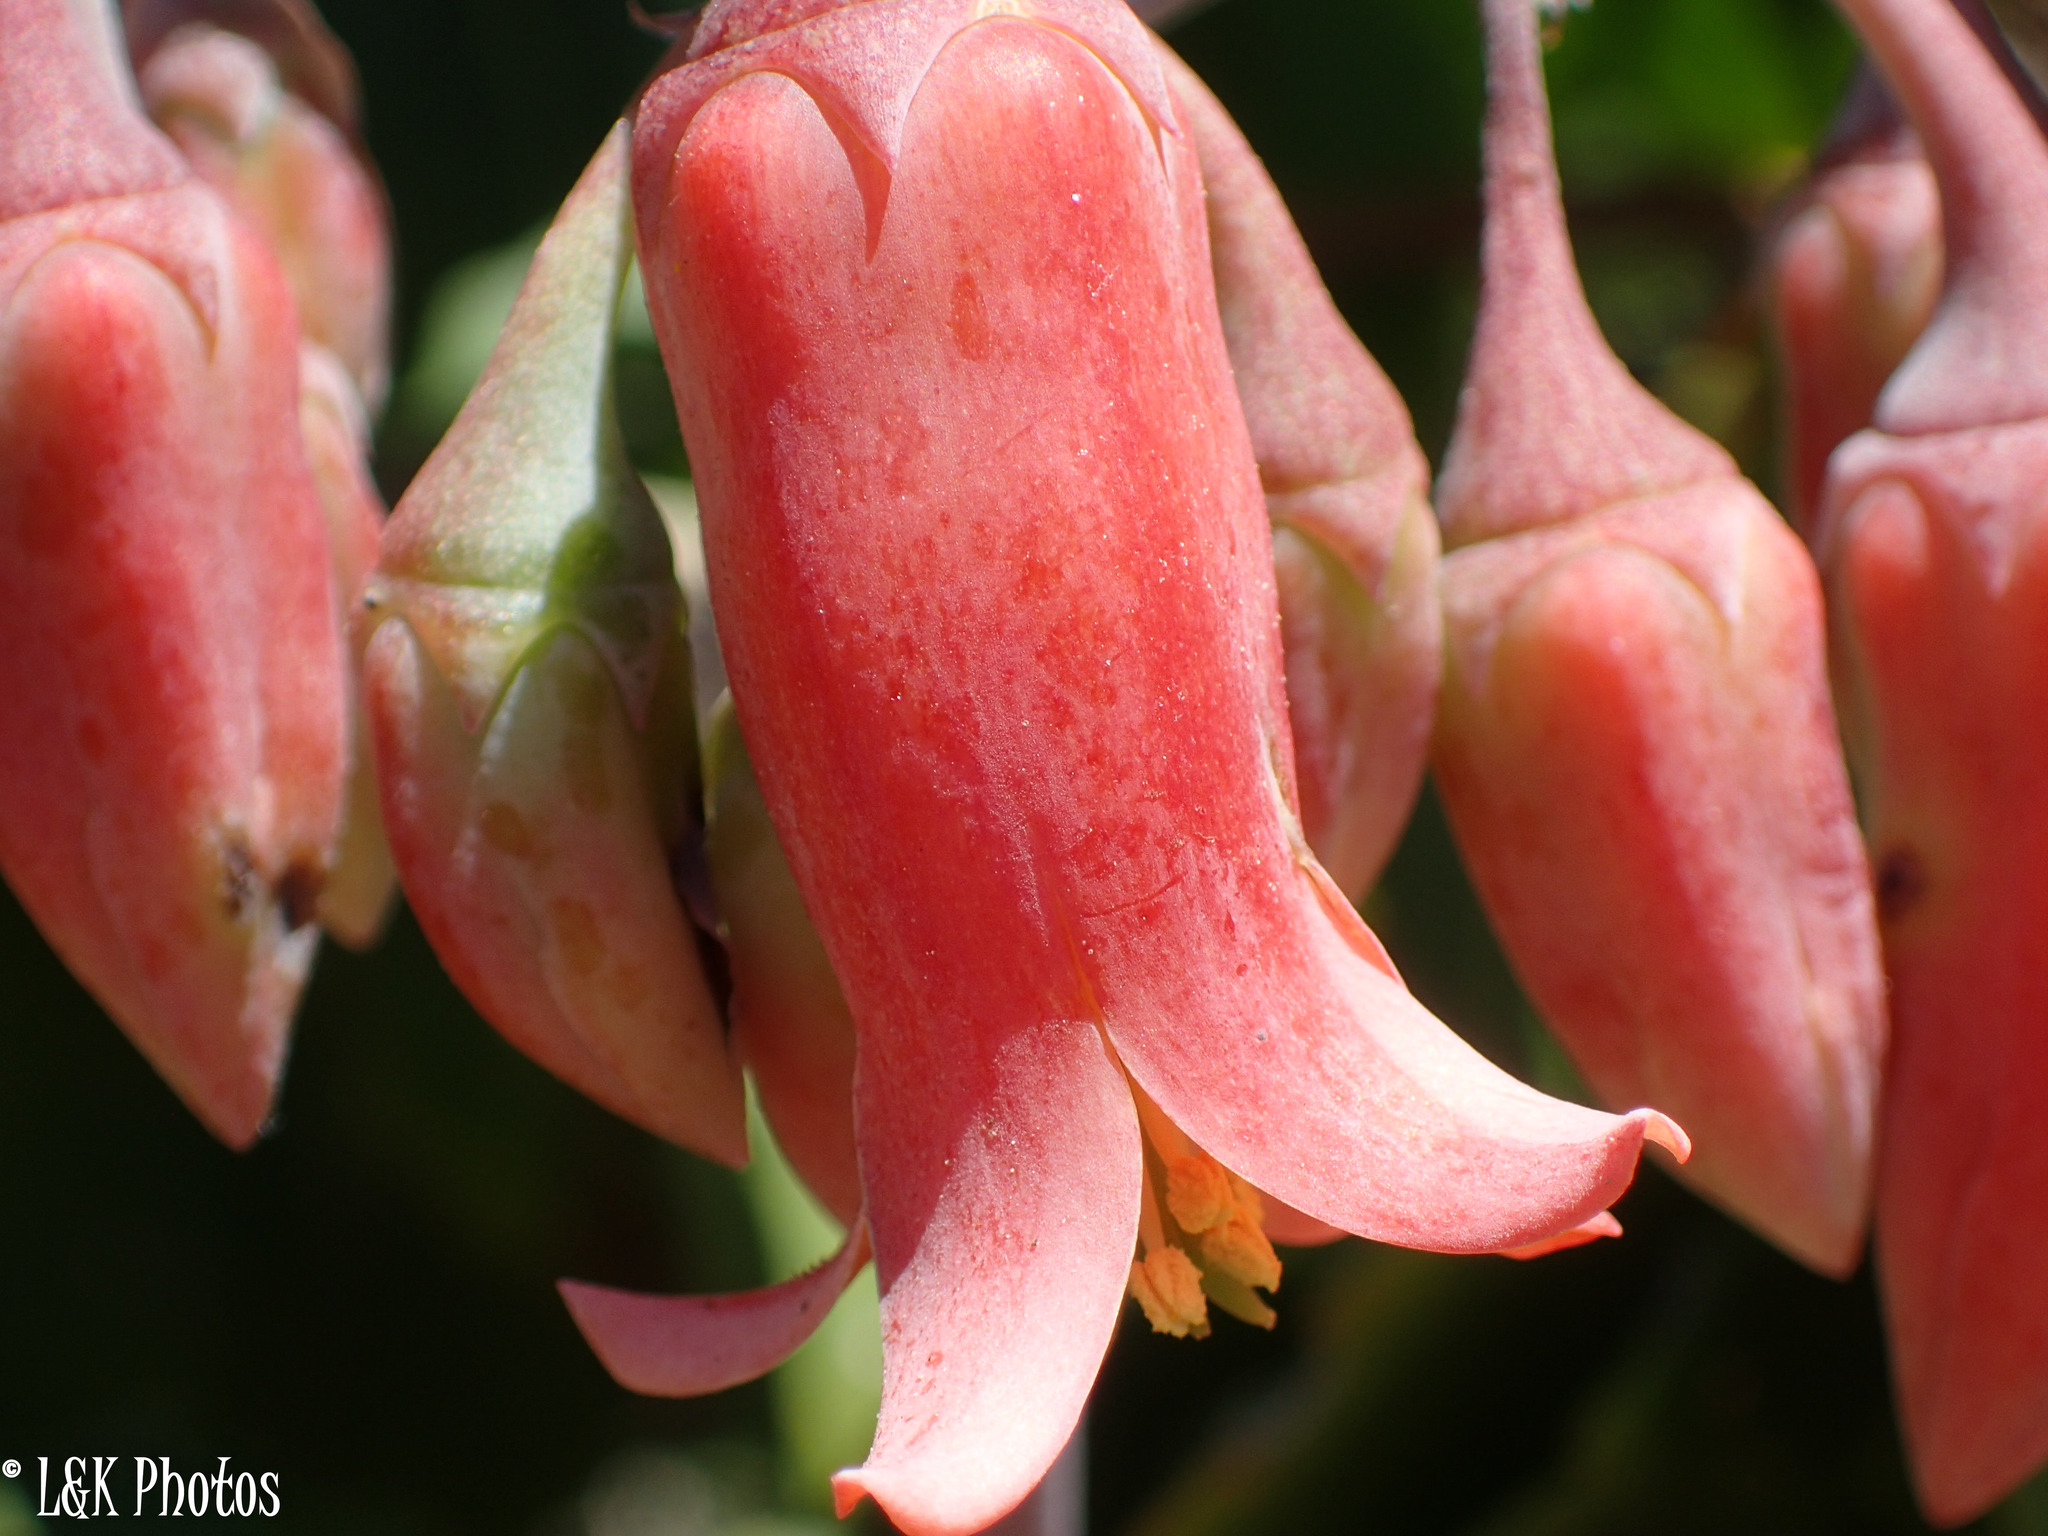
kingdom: Plantae
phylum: Tracheophyta
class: Magnoliopsida
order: Saxifragales
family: Crassulaceae
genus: Cotyledon
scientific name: Cotyledon orbiculata
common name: Pig's ear
